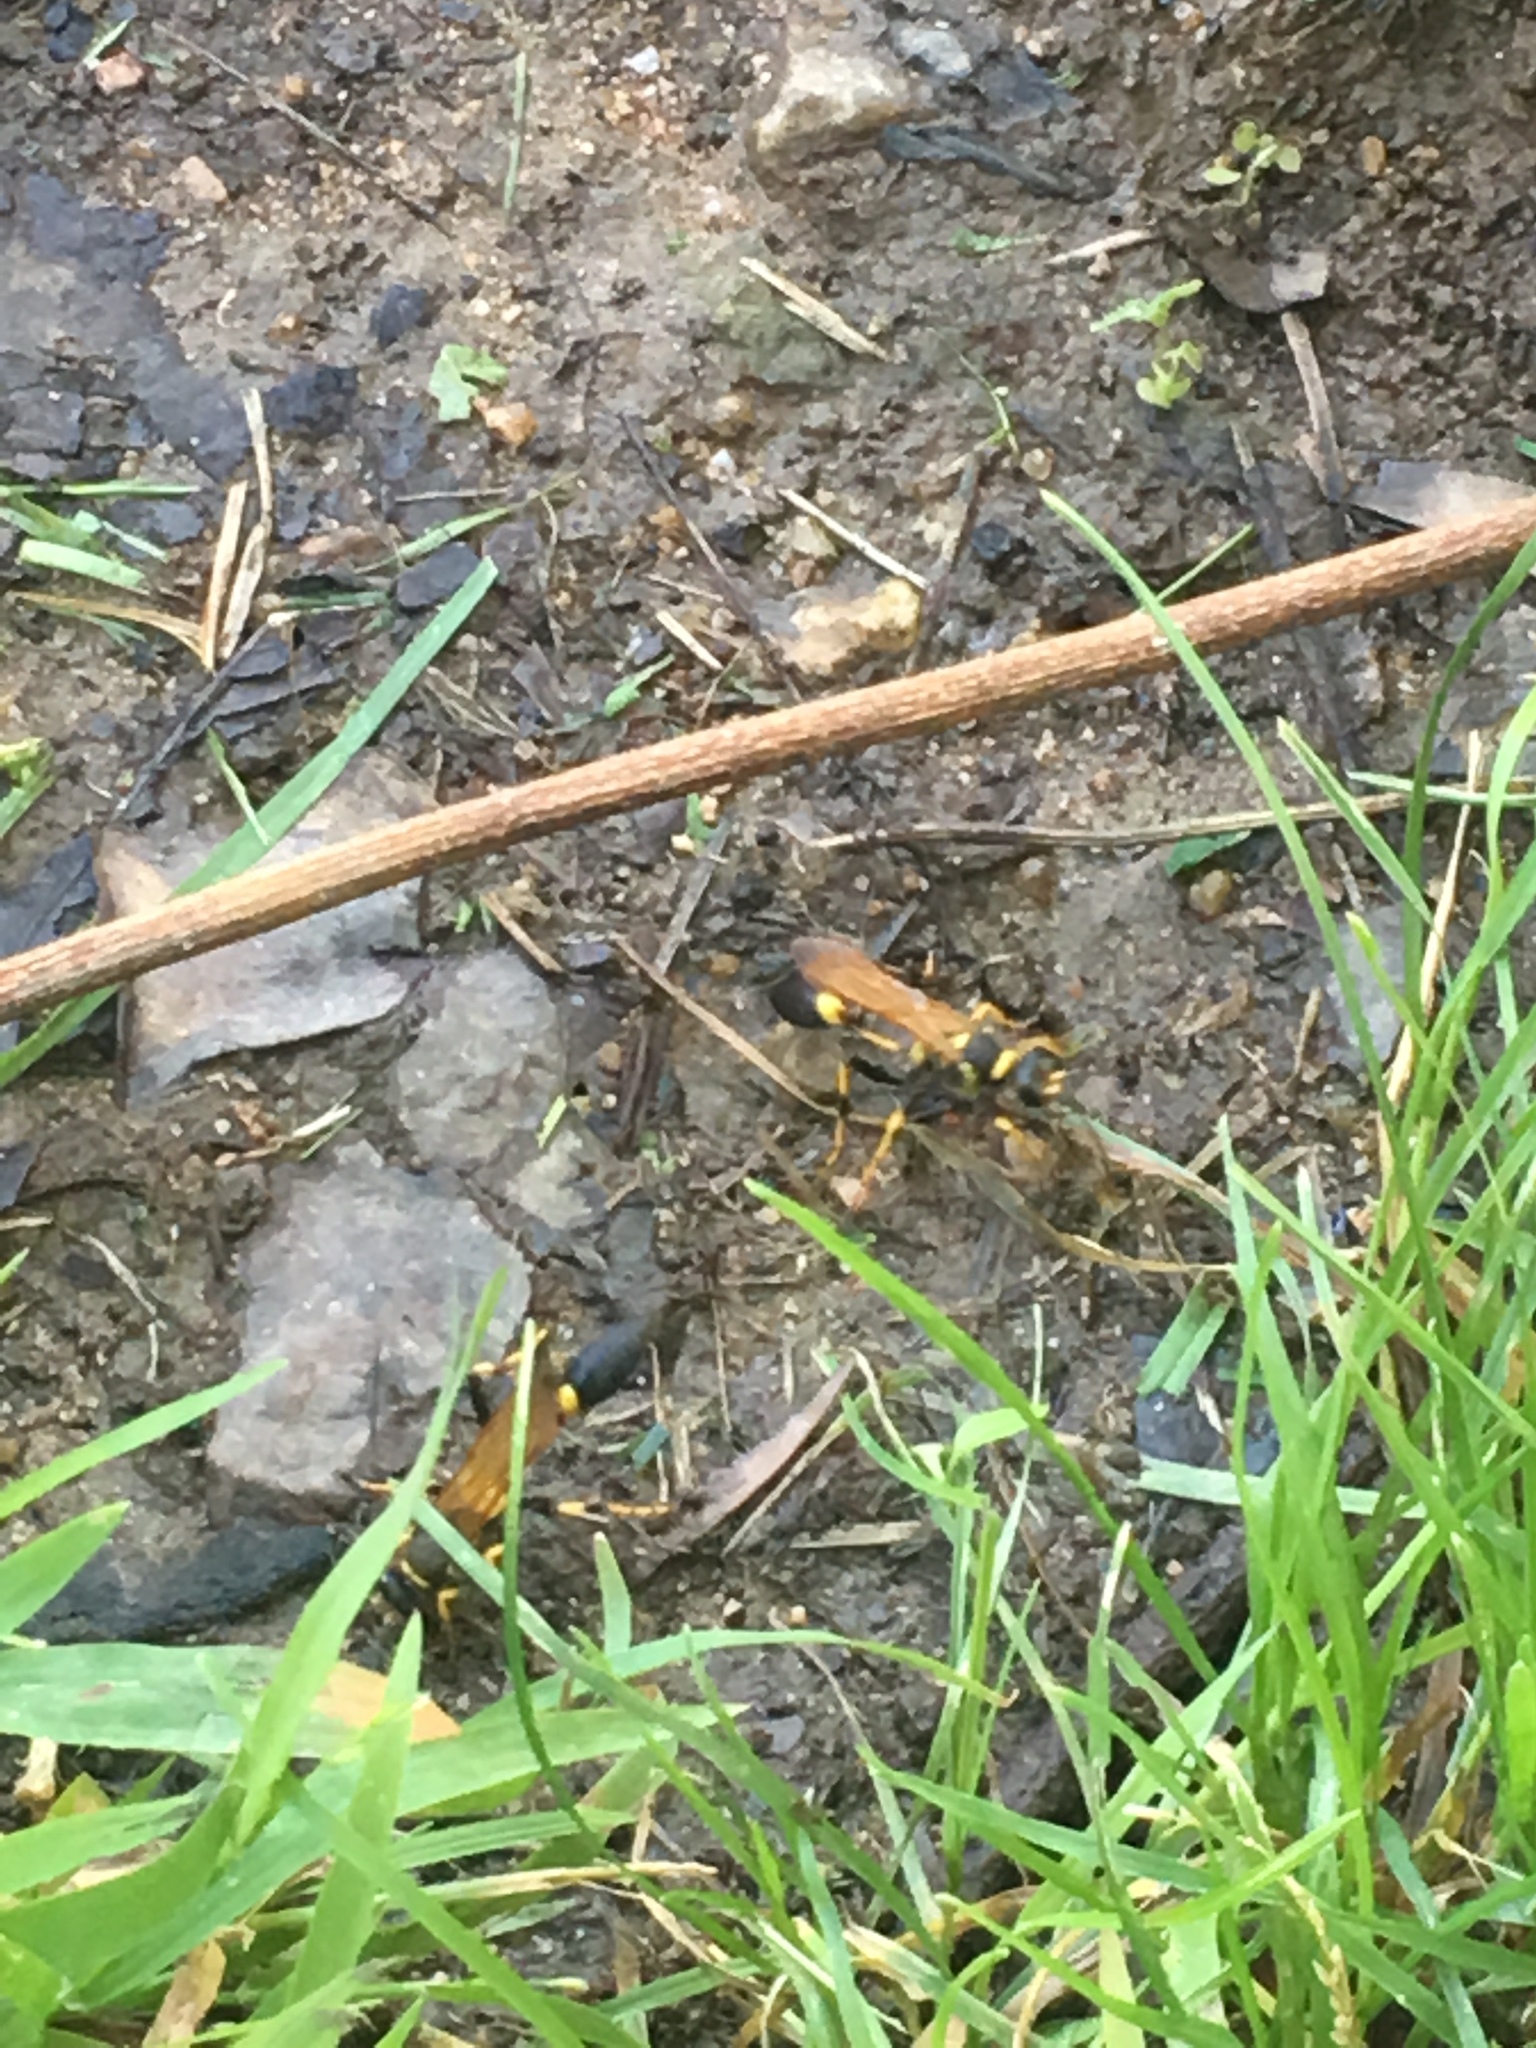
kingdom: Animalia
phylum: Arthropoda
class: Insecta
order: Hymenoptera
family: Sphecidae
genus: Sceliphron
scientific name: Sceliphron caementarium
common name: Mud dauber
